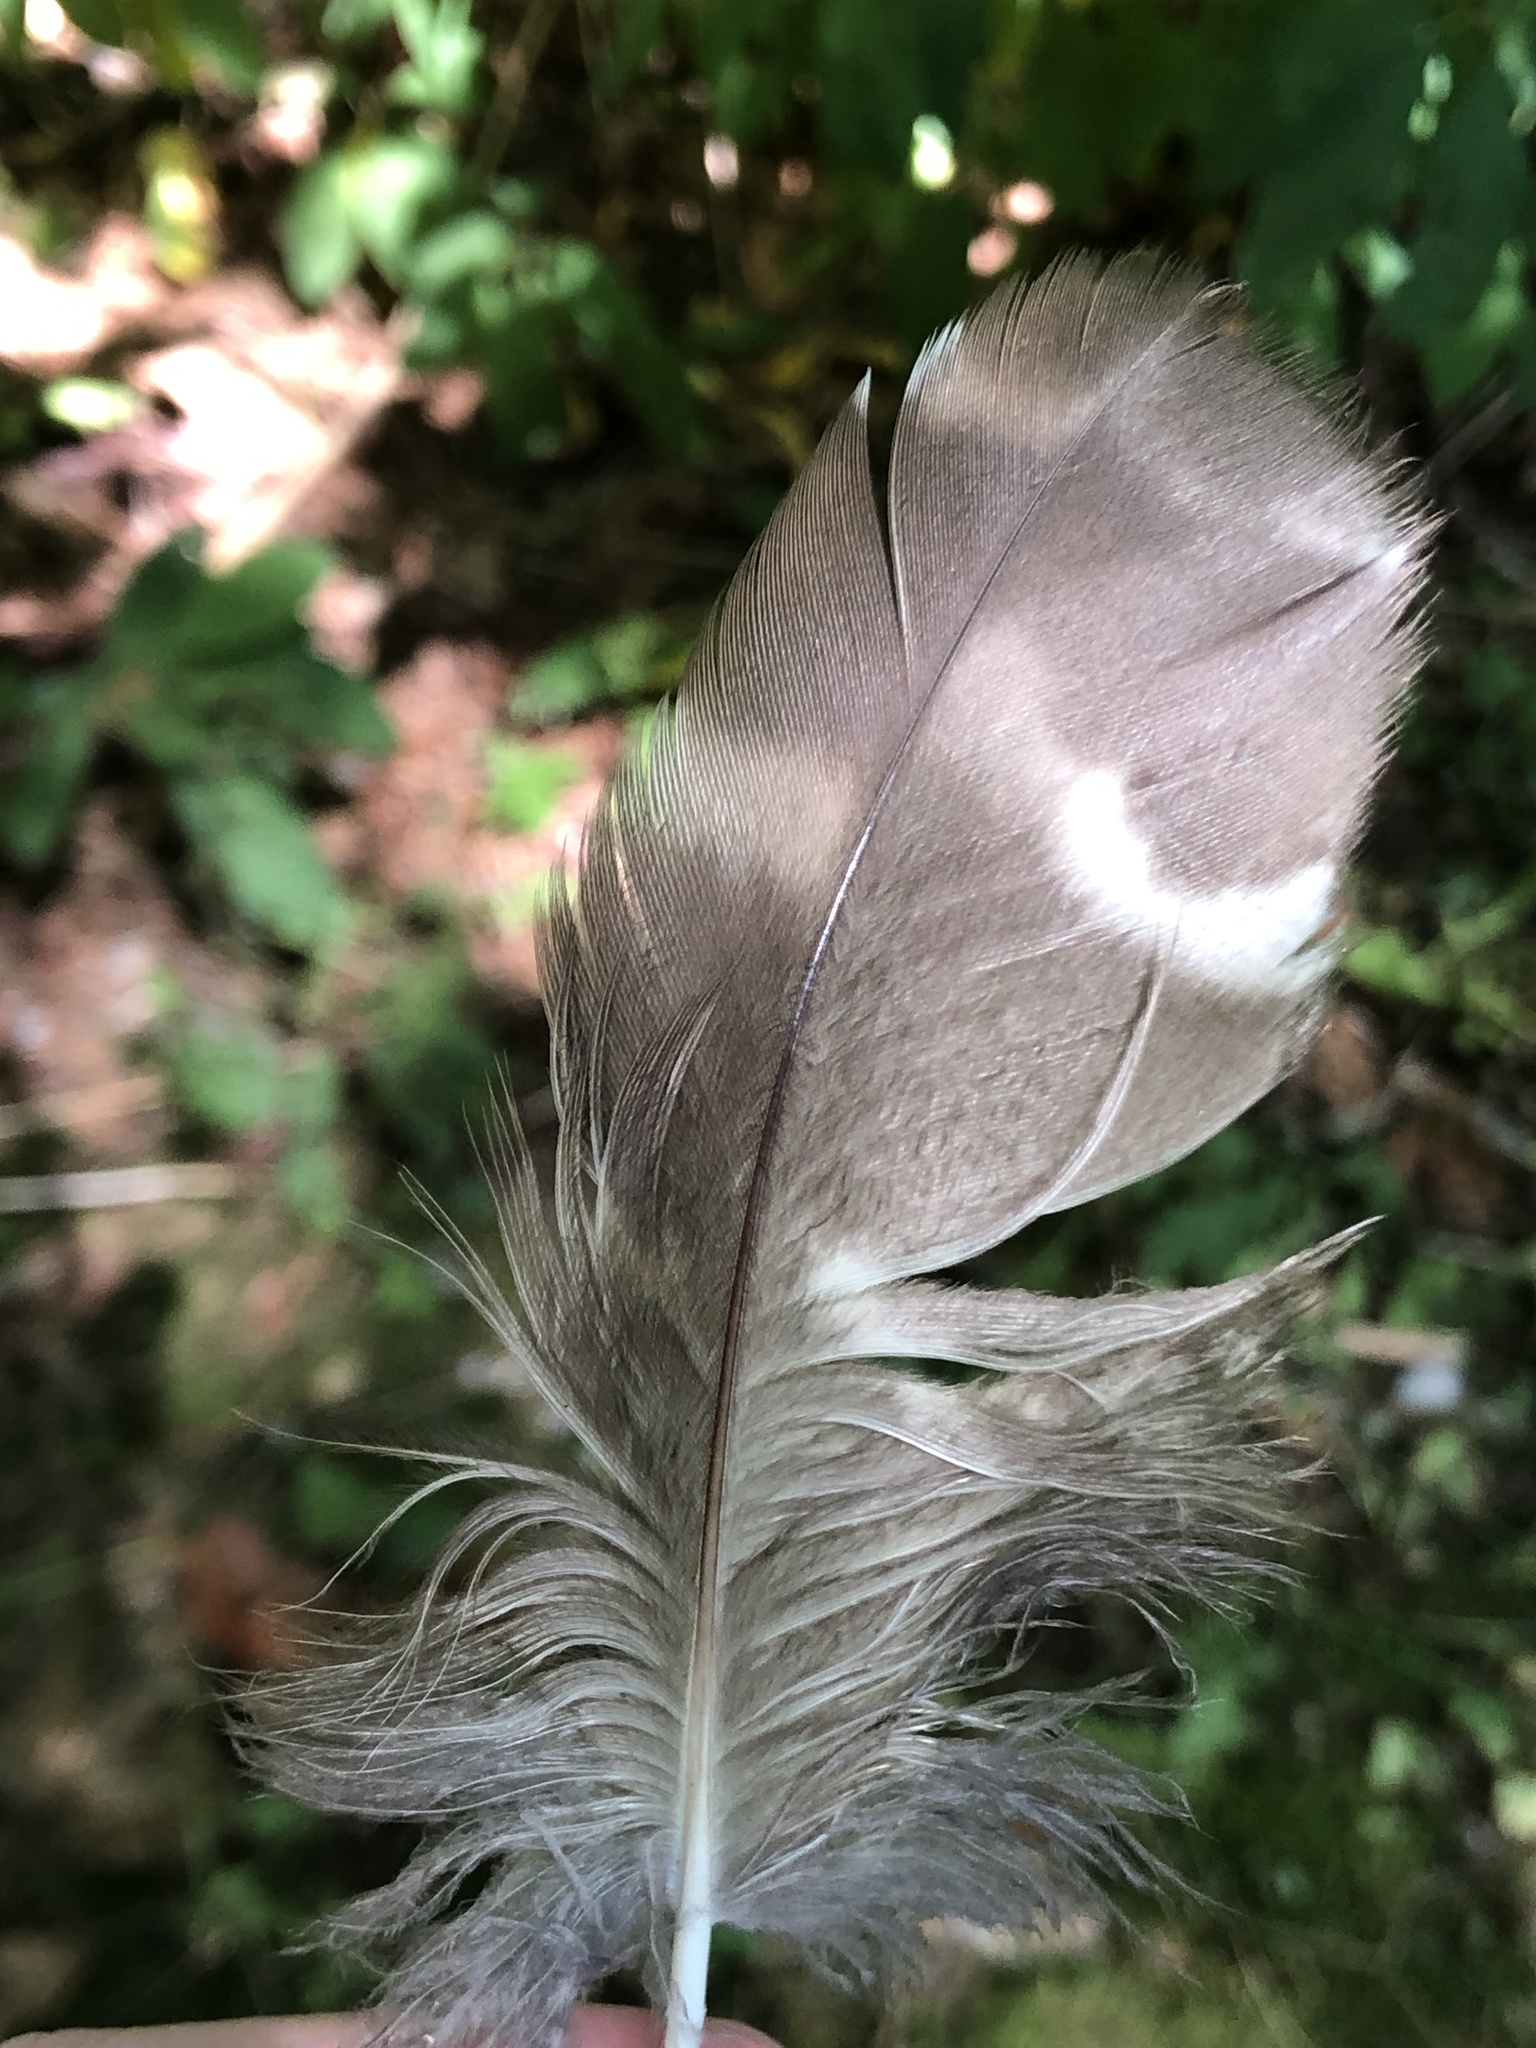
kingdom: Animalia
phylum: Chordata
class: Aves
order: Strigiformes
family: Strigidae
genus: Strix
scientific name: Strix varia
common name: Barred owl
